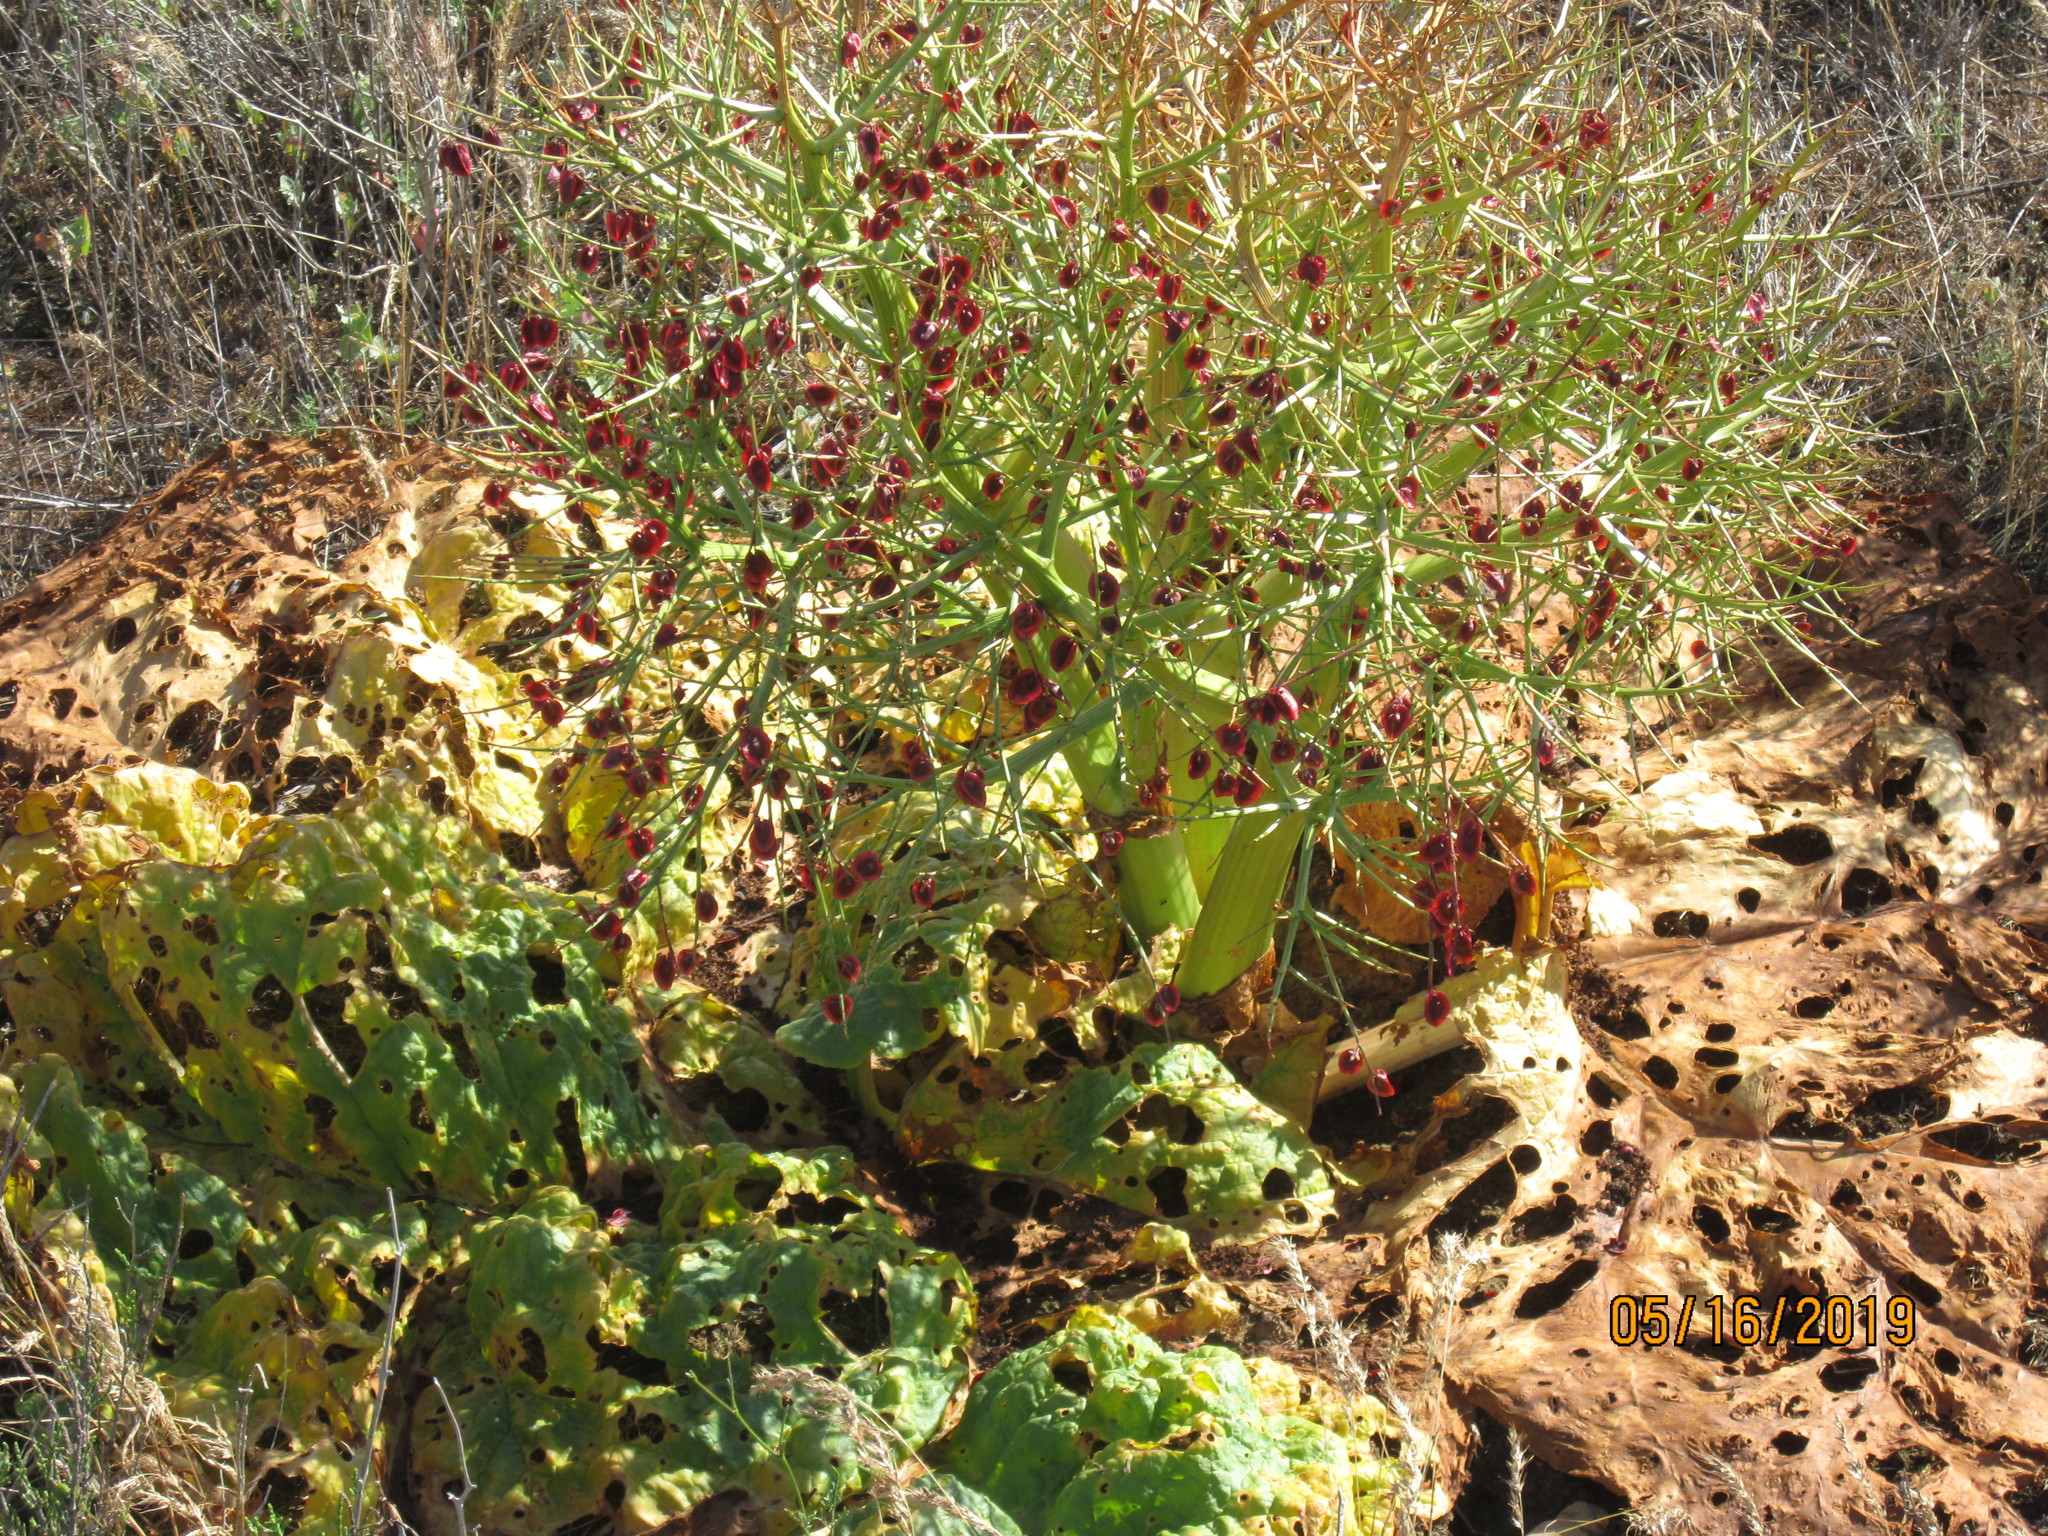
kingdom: Plantae
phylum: Tracheophyta
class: Magnoliopsida
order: Caryophyllales
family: Polygonaceae
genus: Rheum
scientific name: Rheum tataricum
